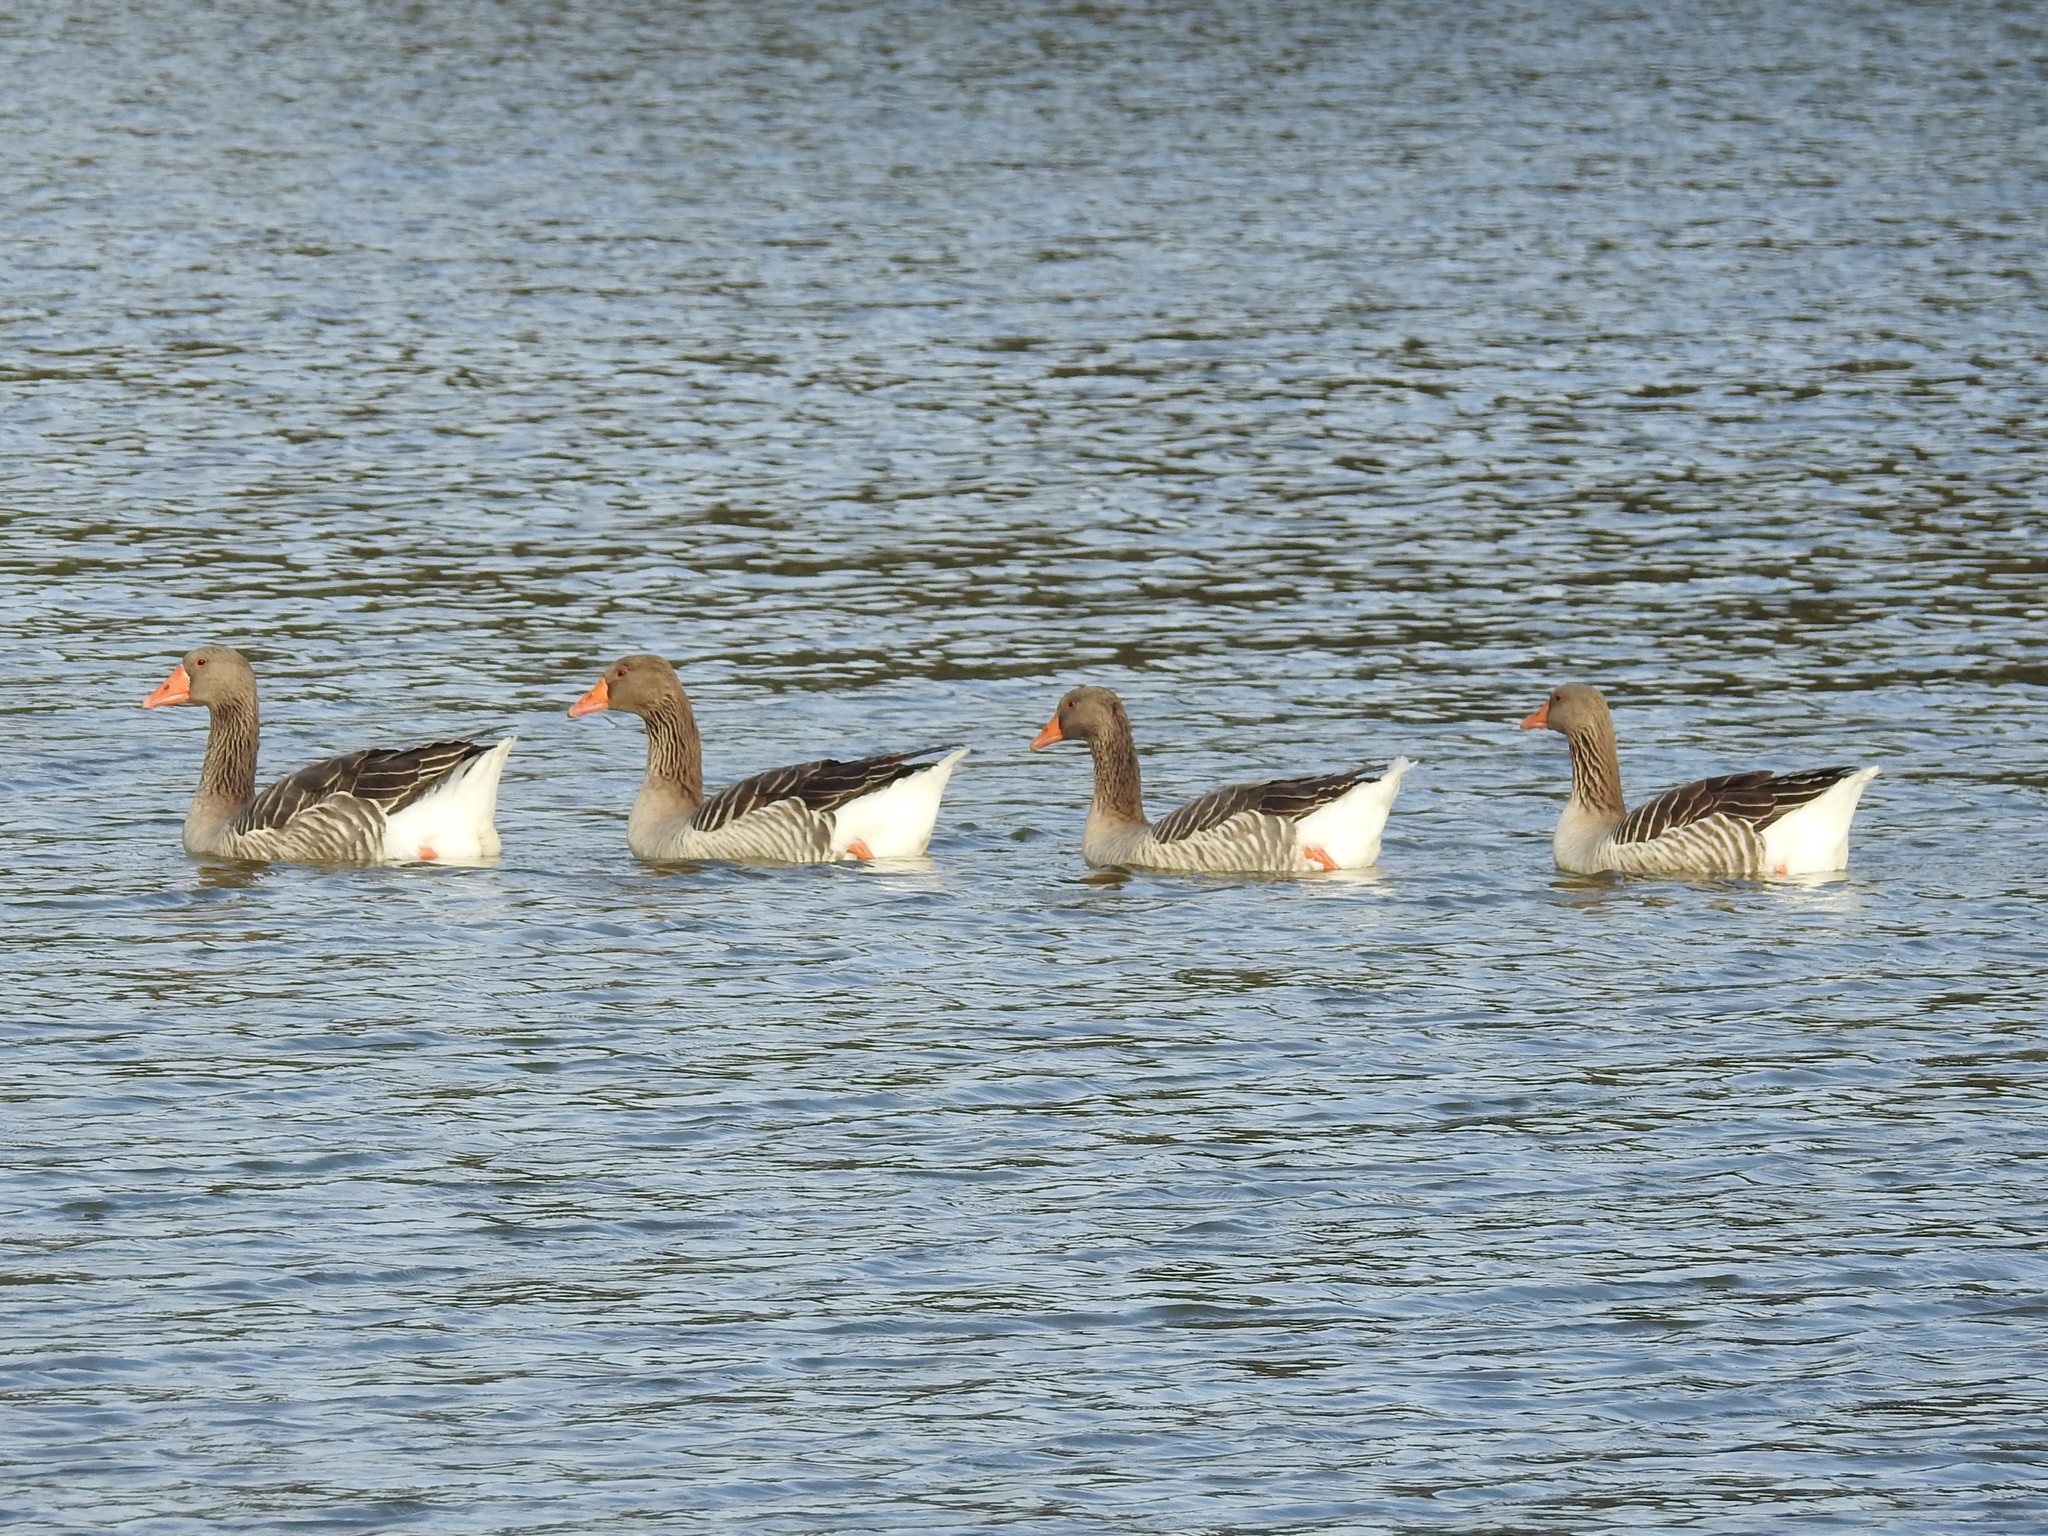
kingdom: Animalia
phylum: Chordata
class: Aves
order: Anseriformes
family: Anatidae
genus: Anser
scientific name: Anser anser
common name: Greylag goose
